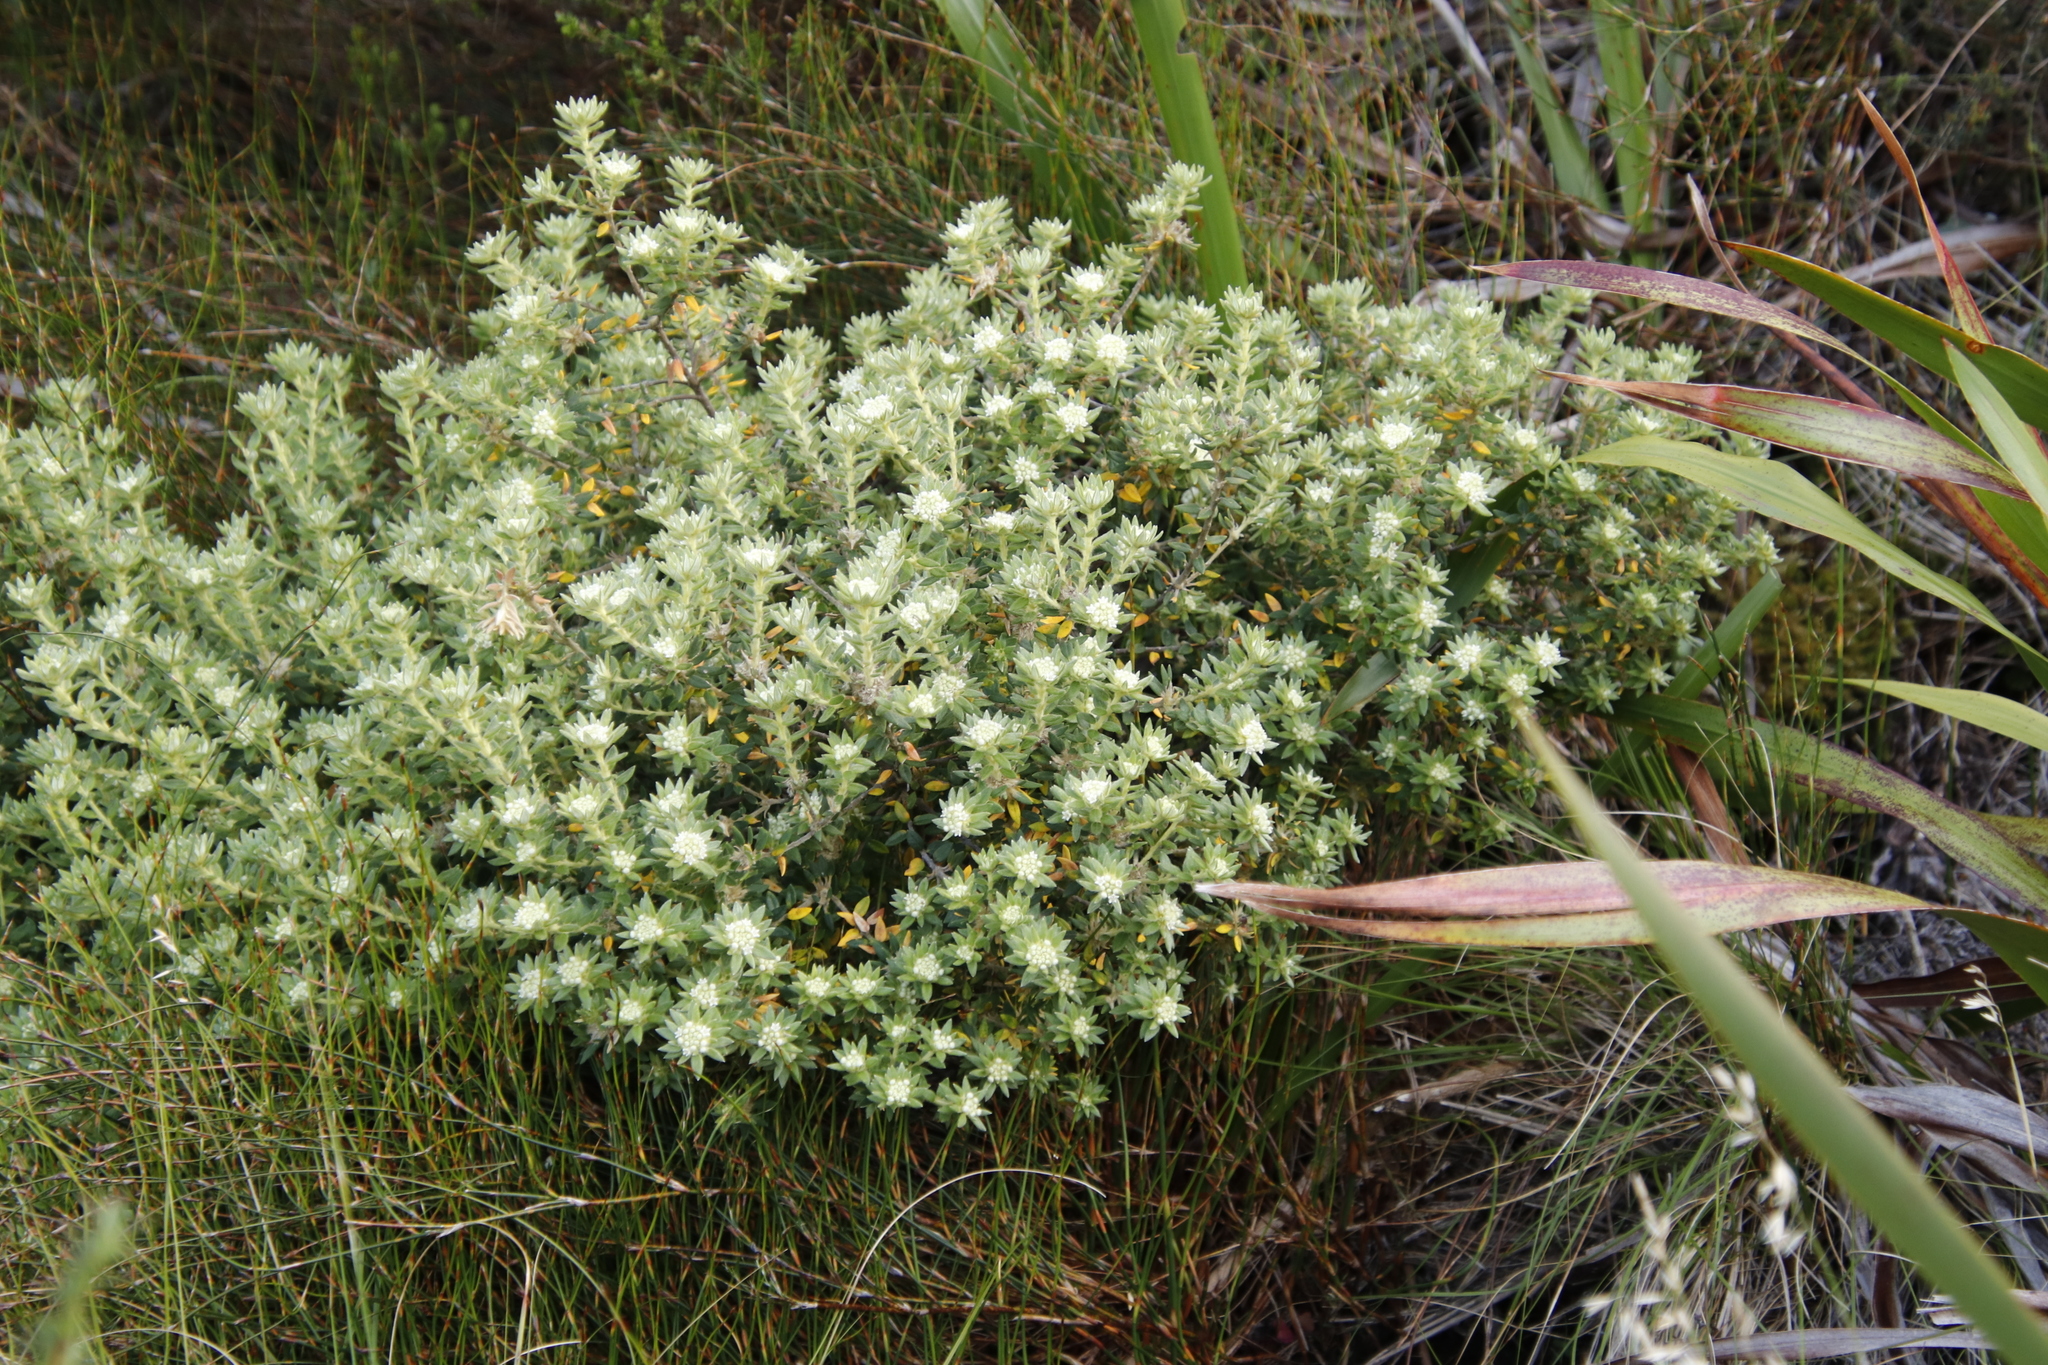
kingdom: Plantae
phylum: Tracheophyta
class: Magnoliopsida
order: Rosales
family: Rhamnaceae
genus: Phylica
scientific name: Phylica dioica
